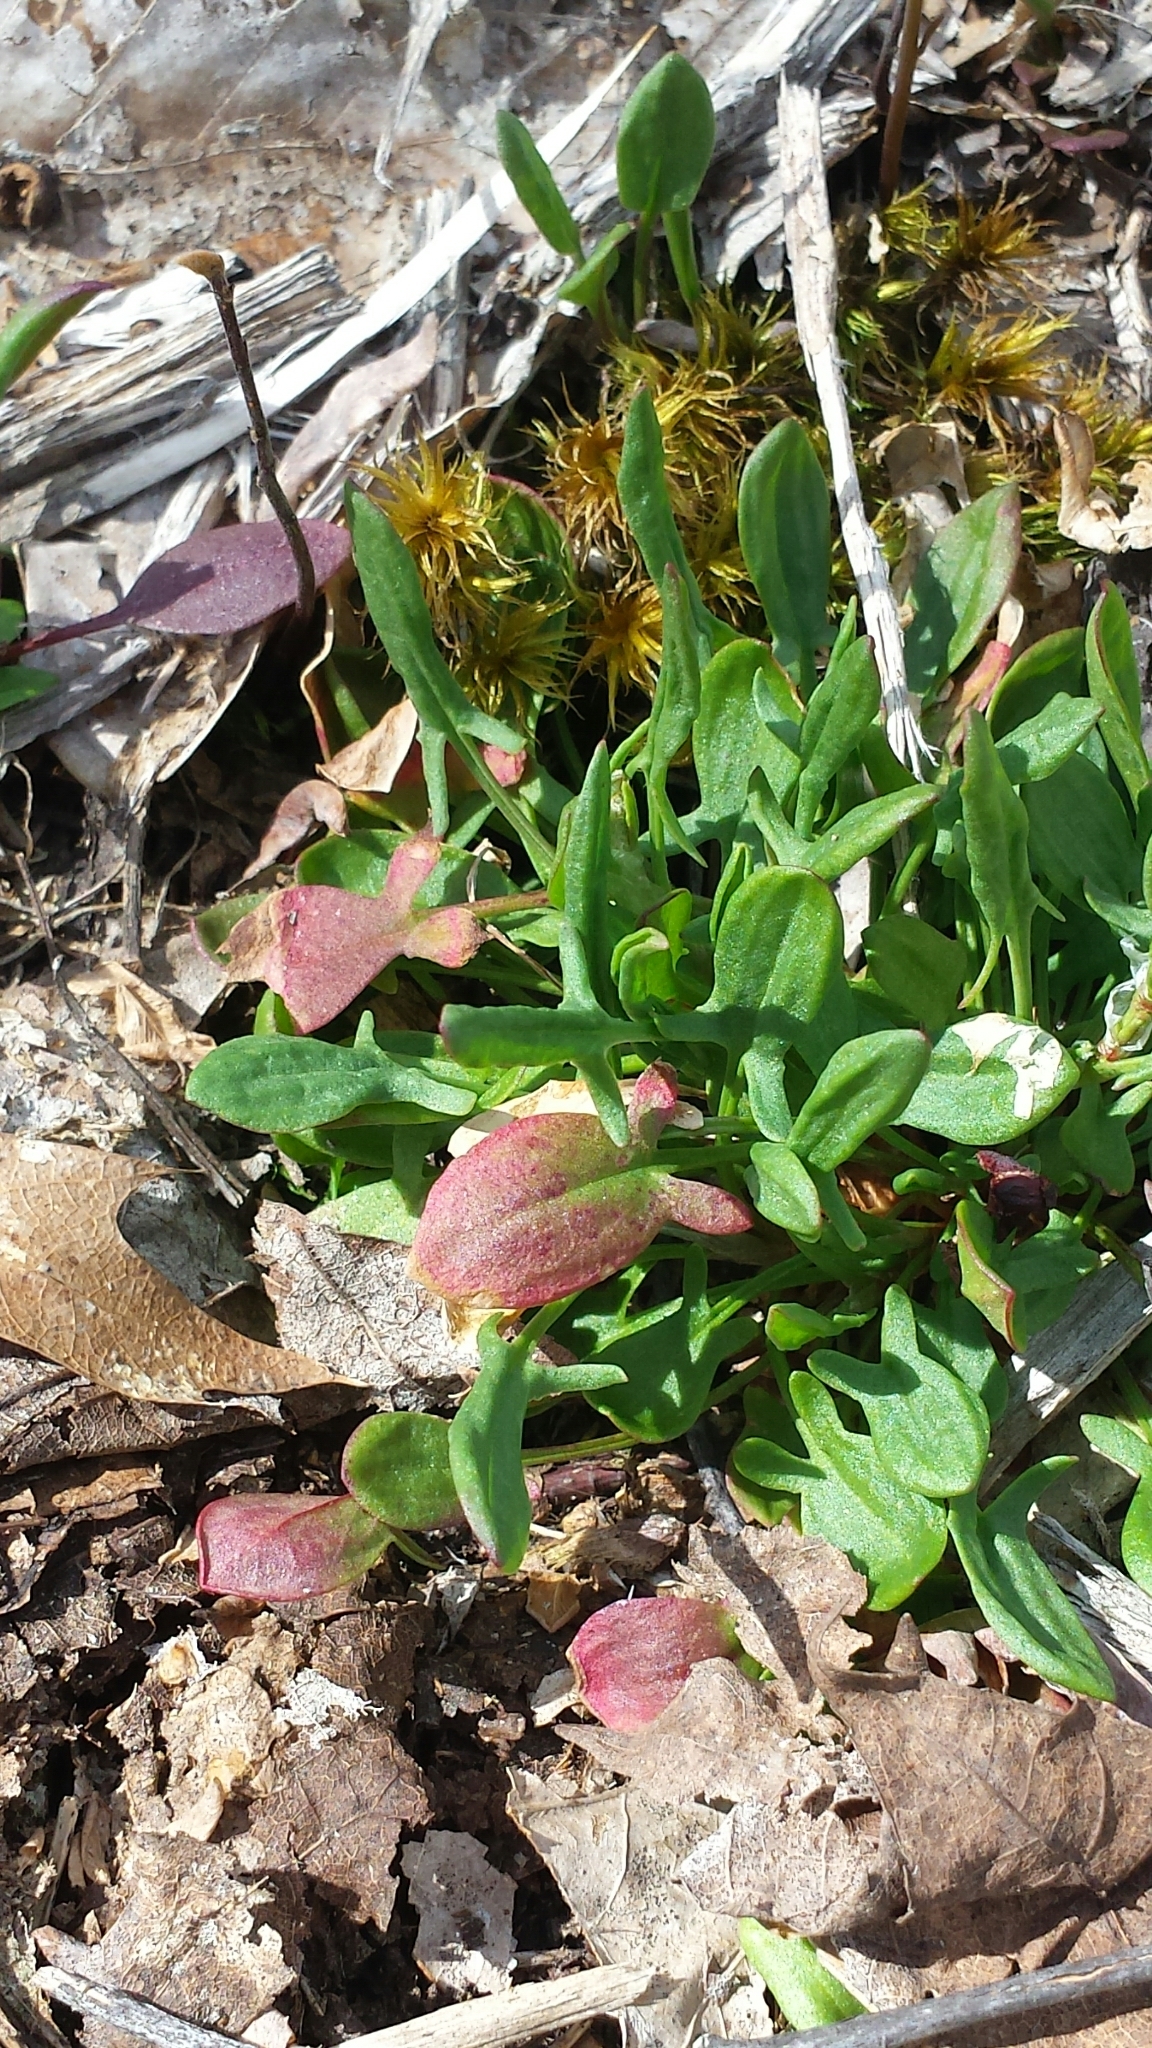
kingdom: Plantae
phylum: Tracheophyta
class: Magnoliopsida
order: Caryophyllales
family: Polygonaceae
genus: Rumex
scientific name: Rumex acetosella
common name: Common sheep sorrel
